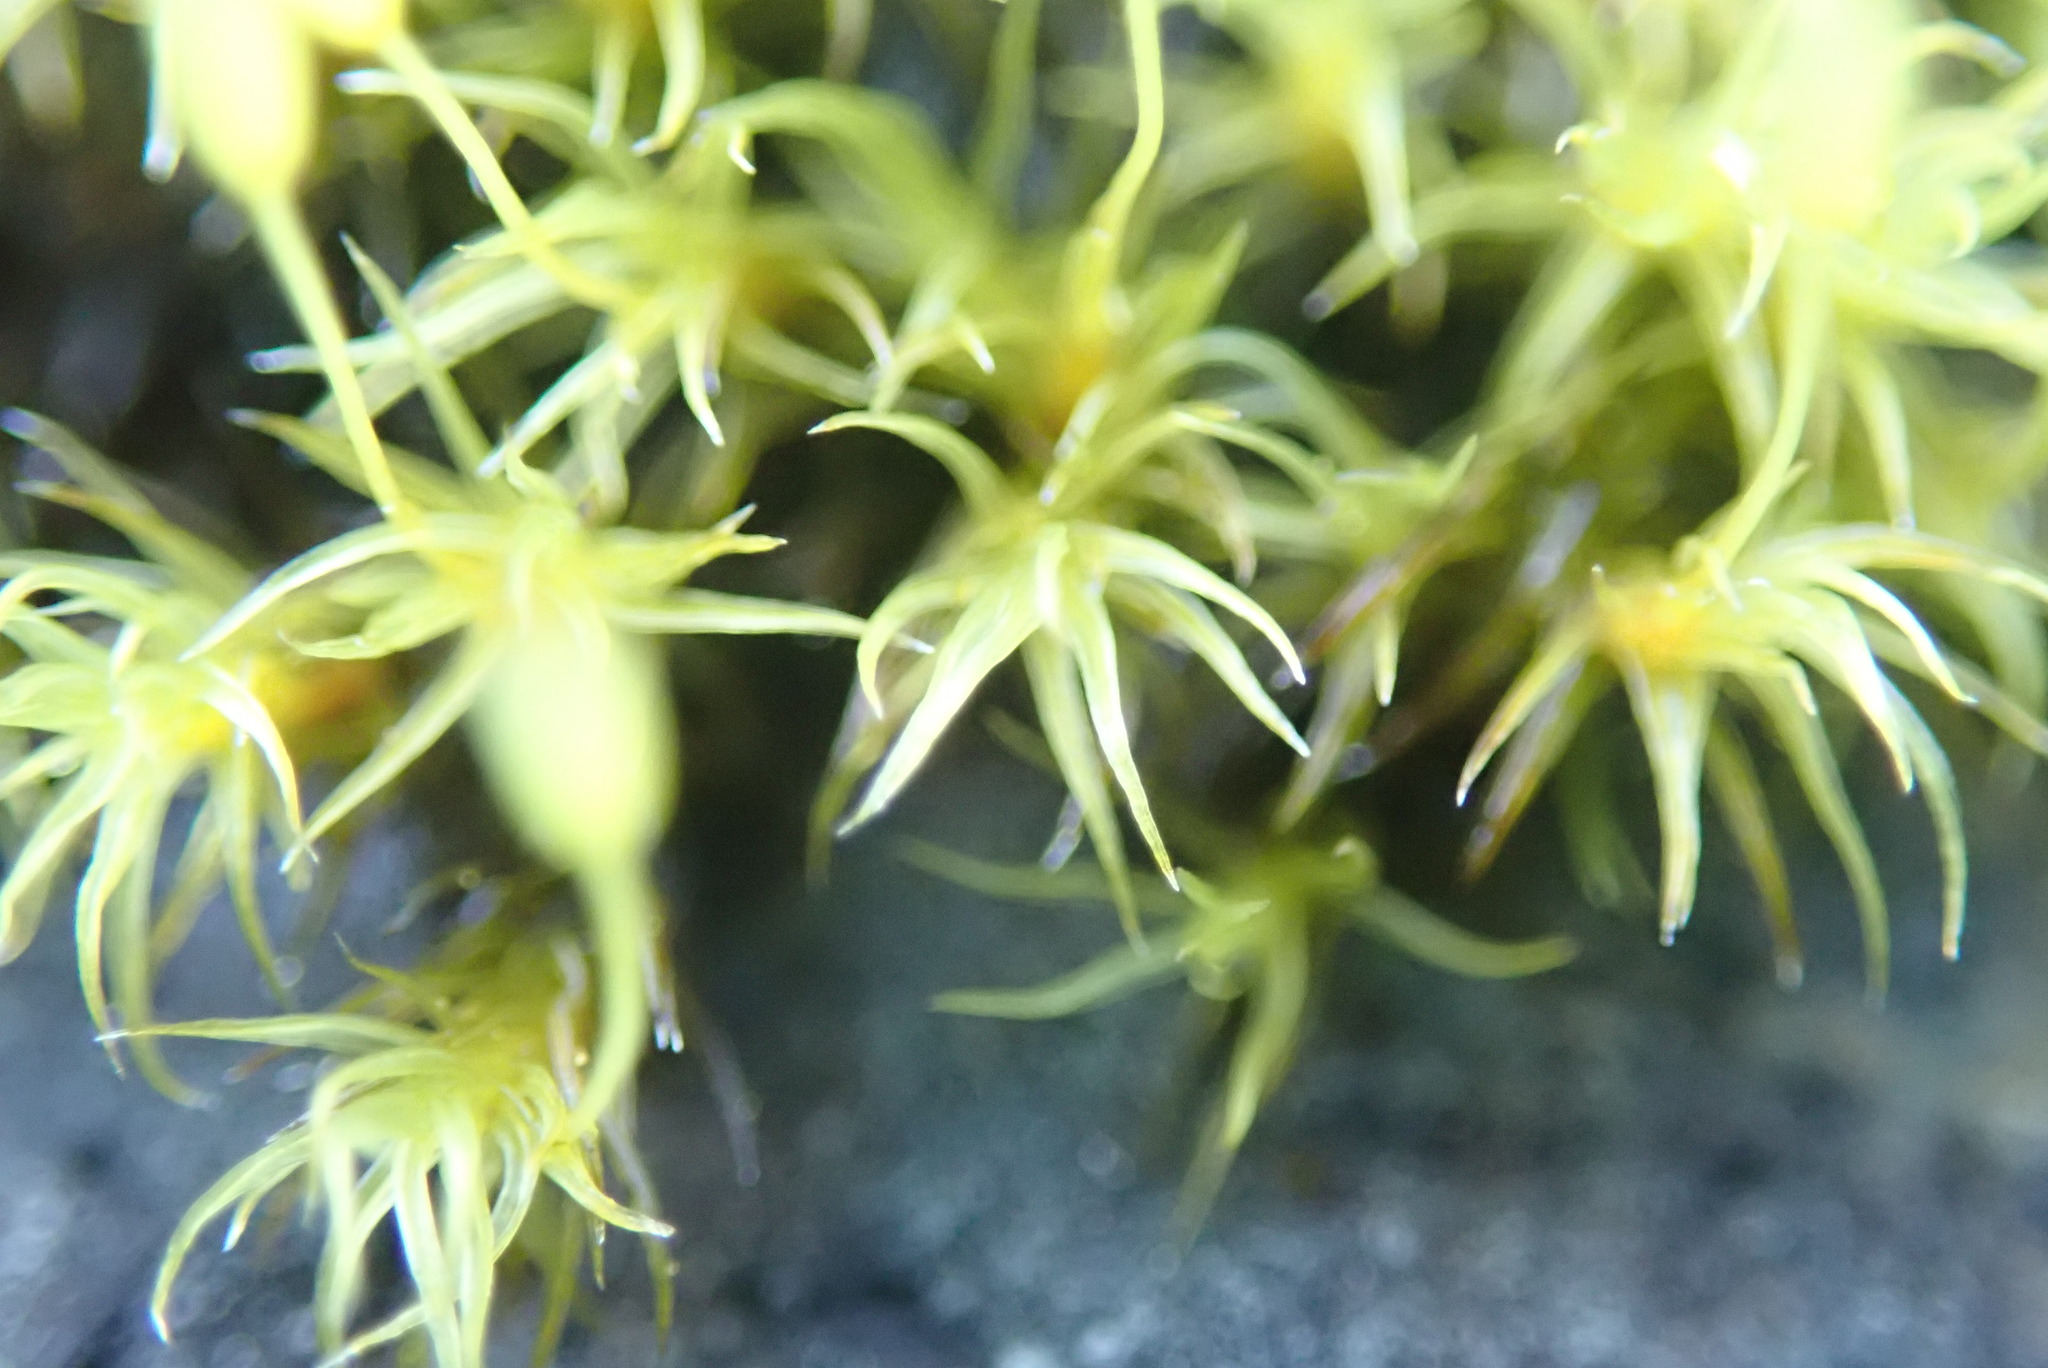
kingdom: Plantae
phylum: Bryophyta
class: Bryopsida
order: Grimmiales
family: Grimmiaceae
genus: Bucklandiella
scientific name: Bucklandiella macounii
